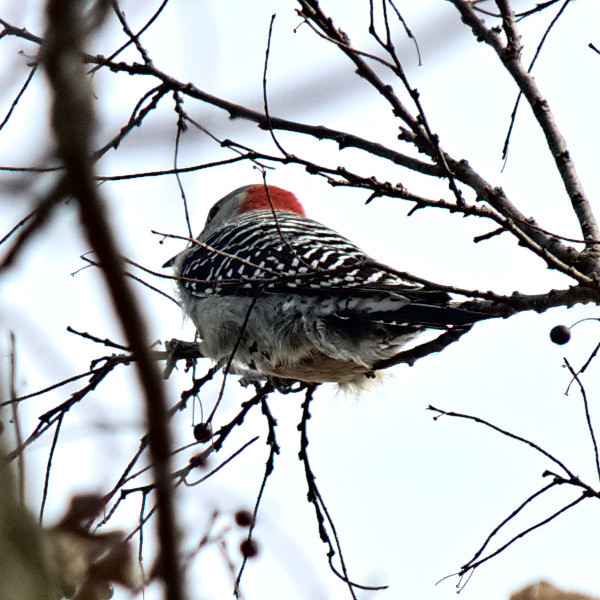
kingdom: Animalia
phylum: Chordata
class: Aves
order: Piciformes
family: Picidae
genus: Melanerpes
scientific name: Melanerpes carolinus
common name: Red-bellied woodpecker
